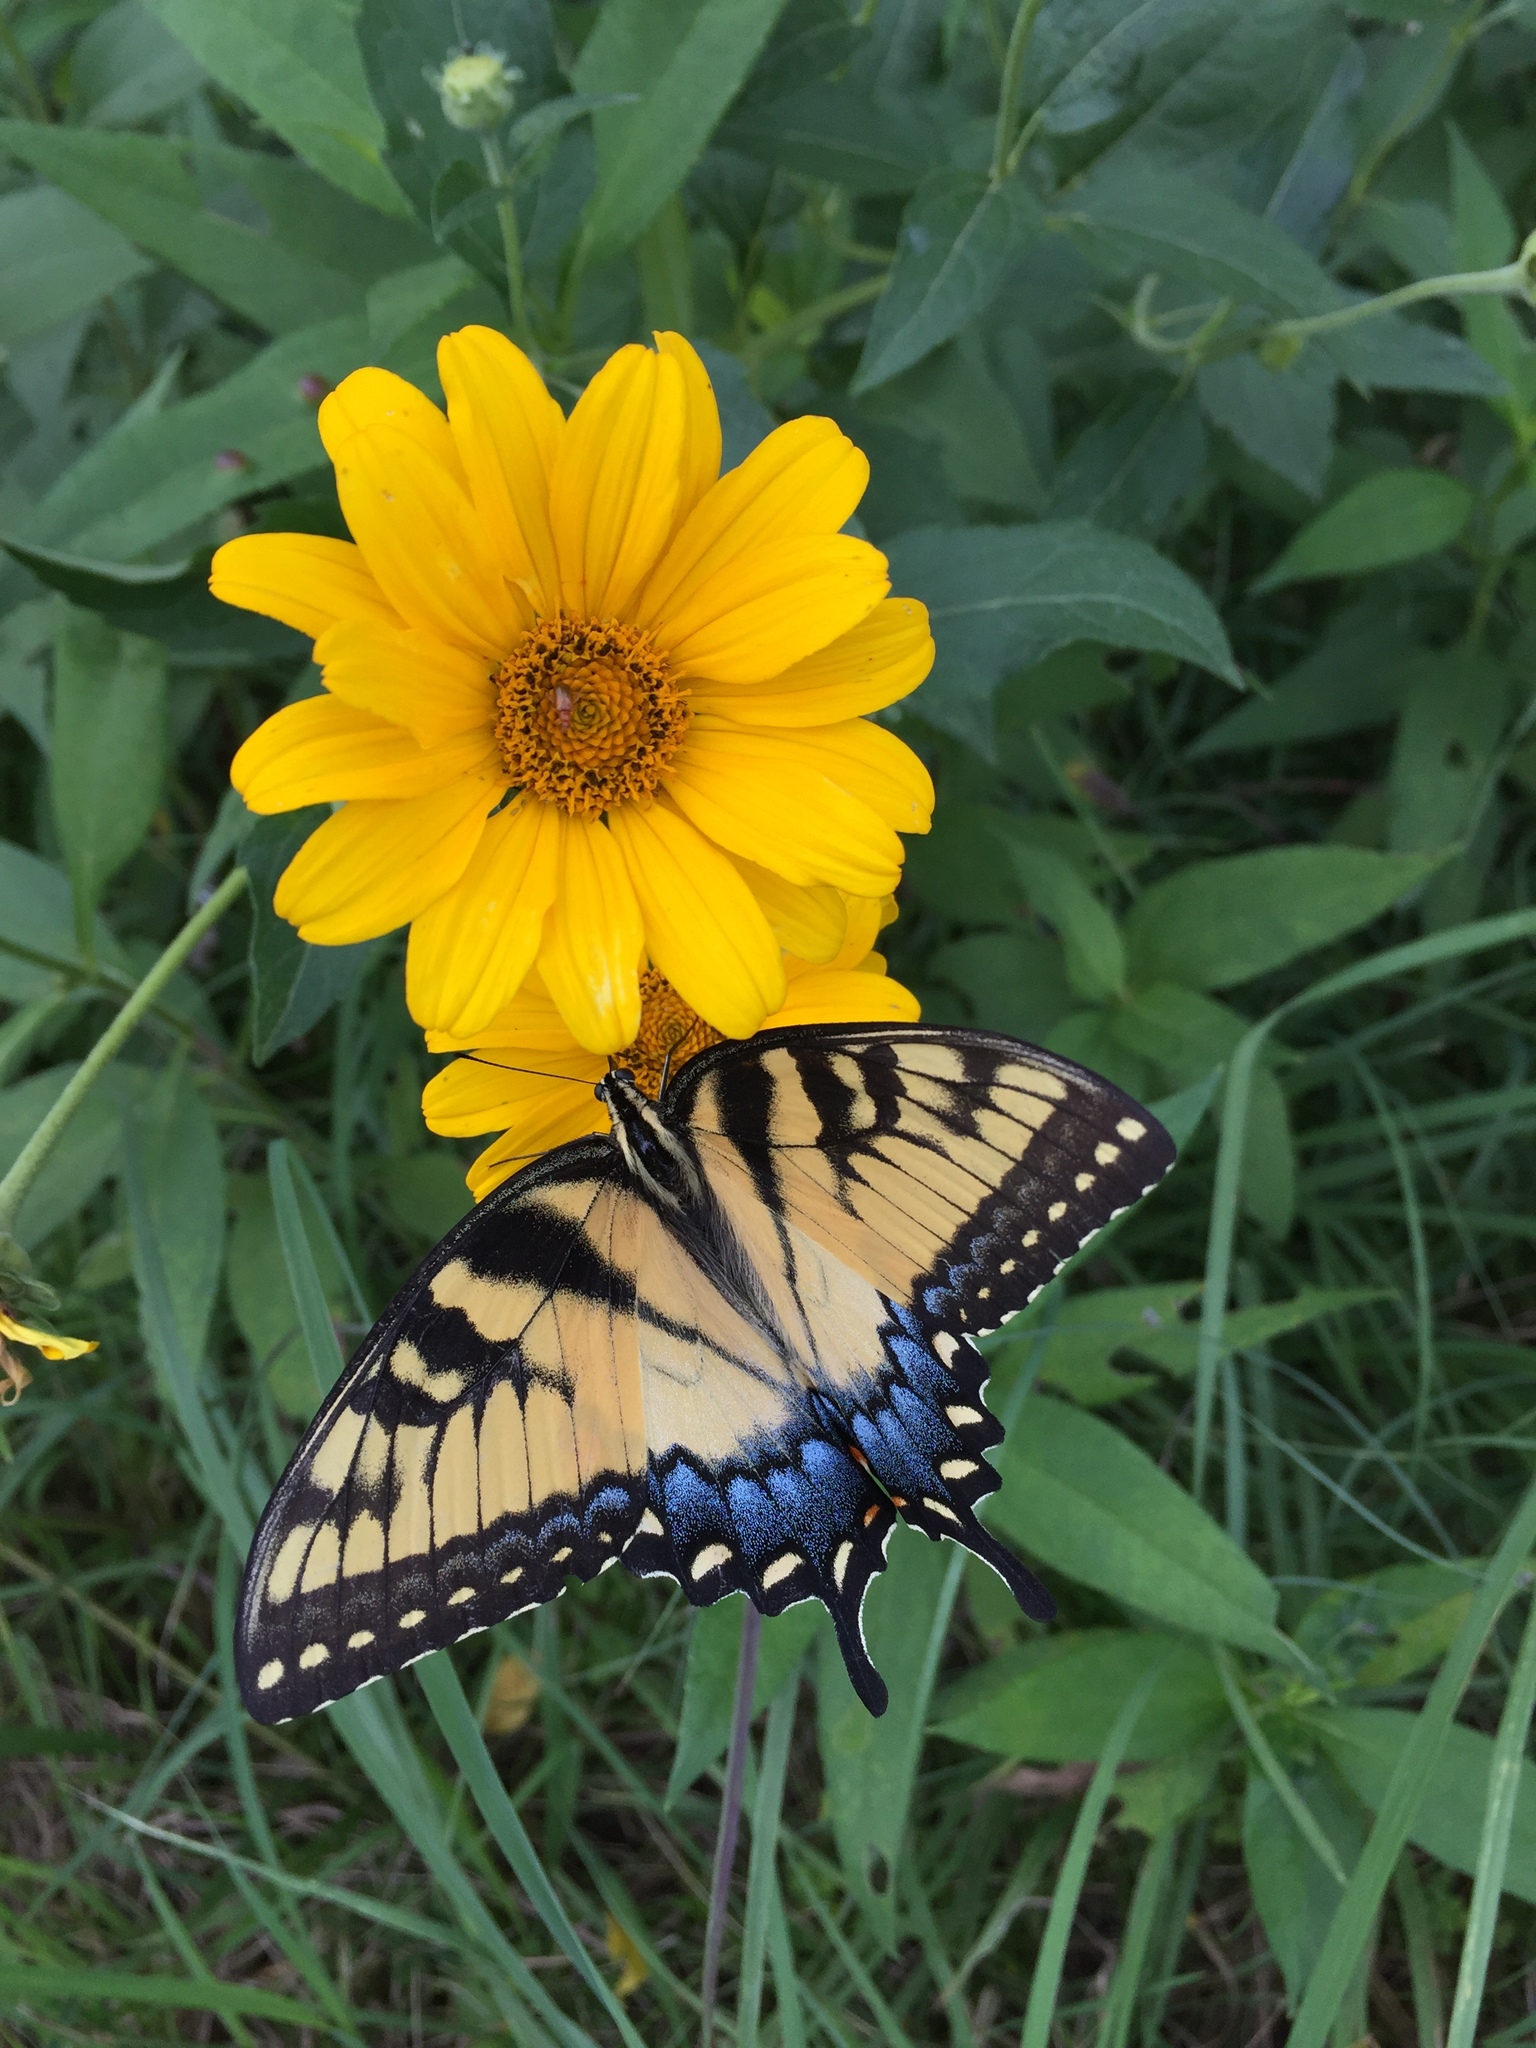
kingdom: Animalia
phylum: Arthropoda
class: Insecta
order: Lepidoptera
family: Papilionidae
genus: Papilio
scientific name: Papilio glaucus
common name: Tiger swallowtail
